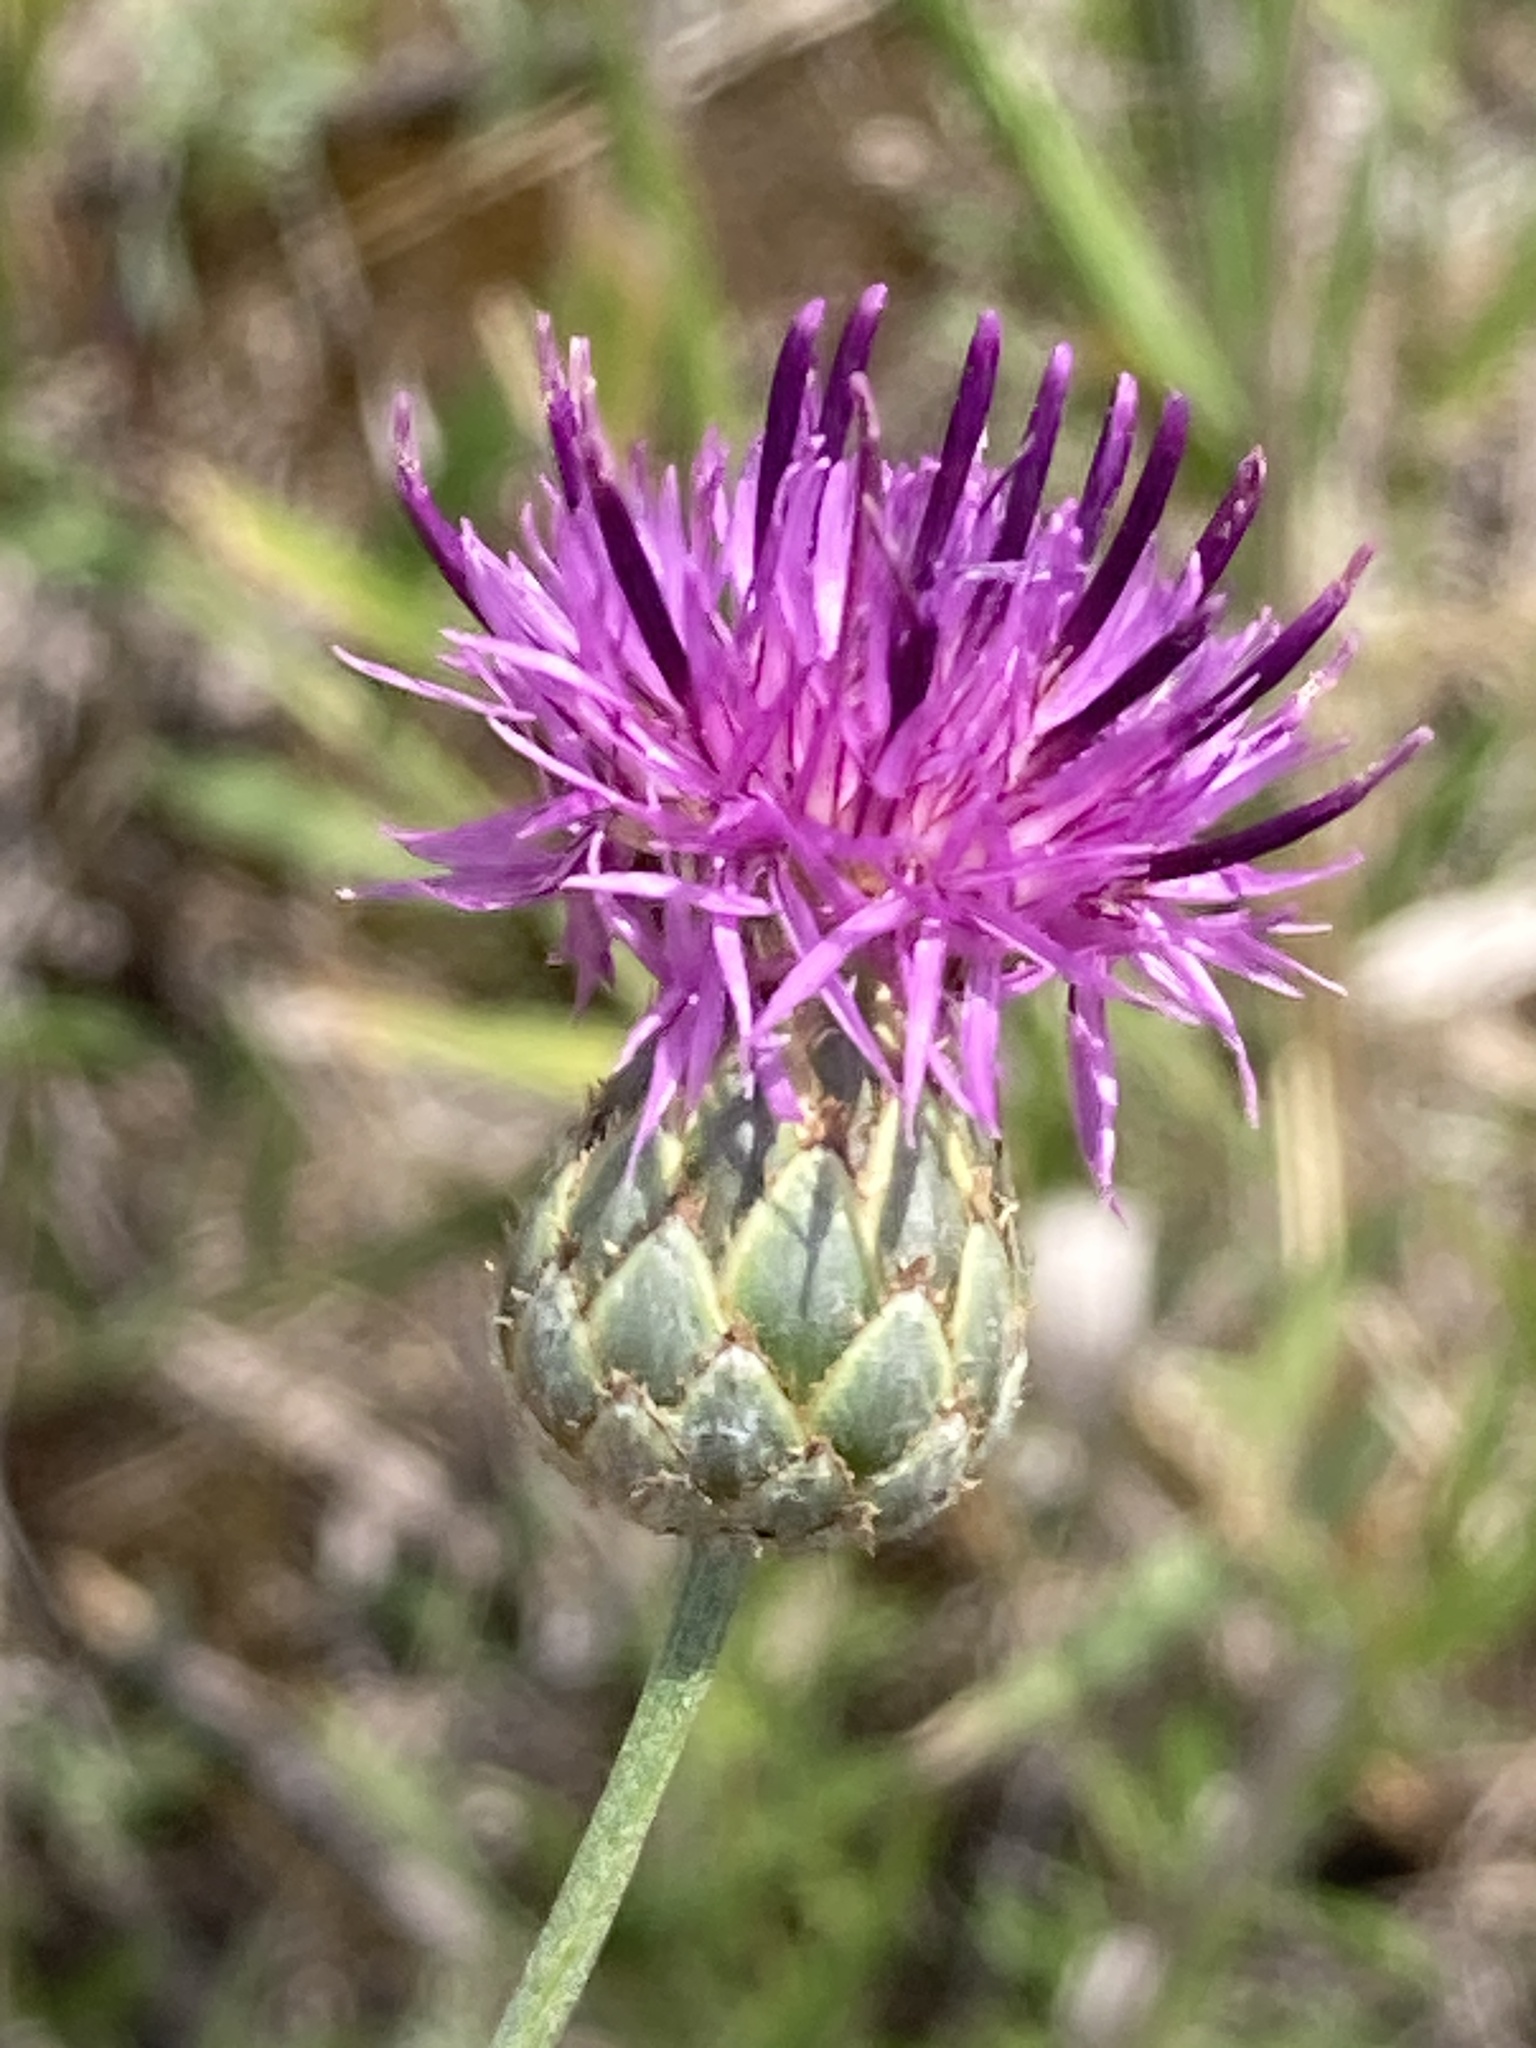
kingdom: Plantae
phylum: Tracheophyta
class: Magnoliopsida
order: Asterales
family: Asteraceae
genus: Centaurea
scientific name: Centaurea scabiosa
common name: Greater knapweed
